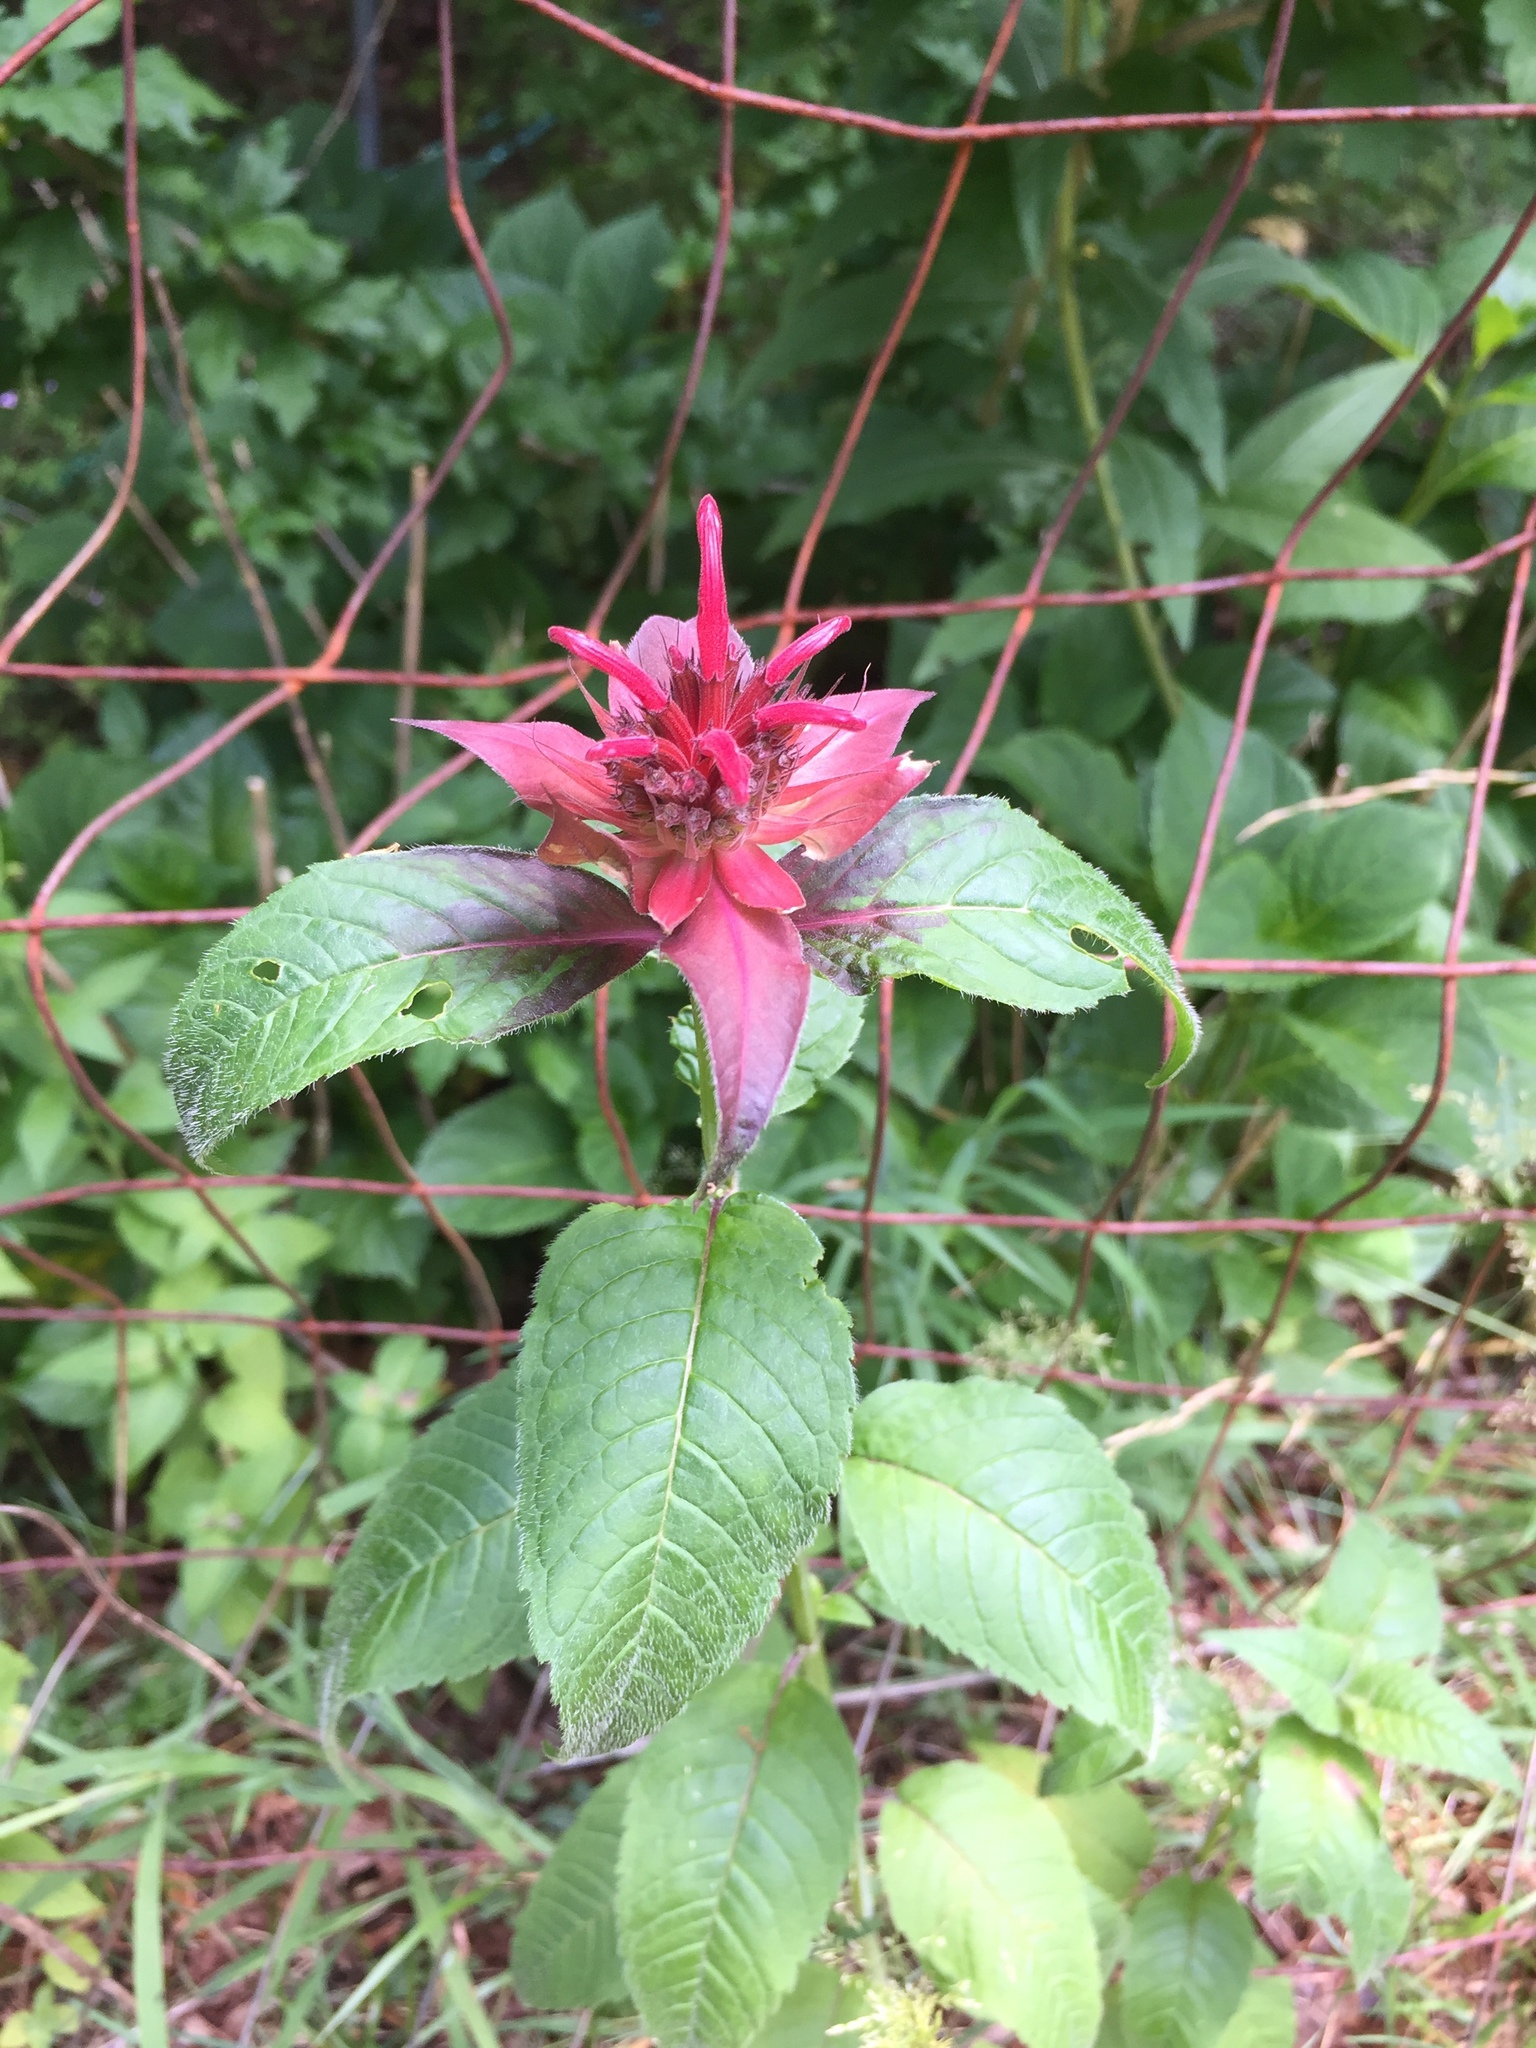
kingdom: Plantae
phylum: Tracheophyta
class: Magnoliopsida
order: Lamiales
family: Lamiaceae
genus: Monarda
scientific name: Monarda didyma
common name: Beebalm
